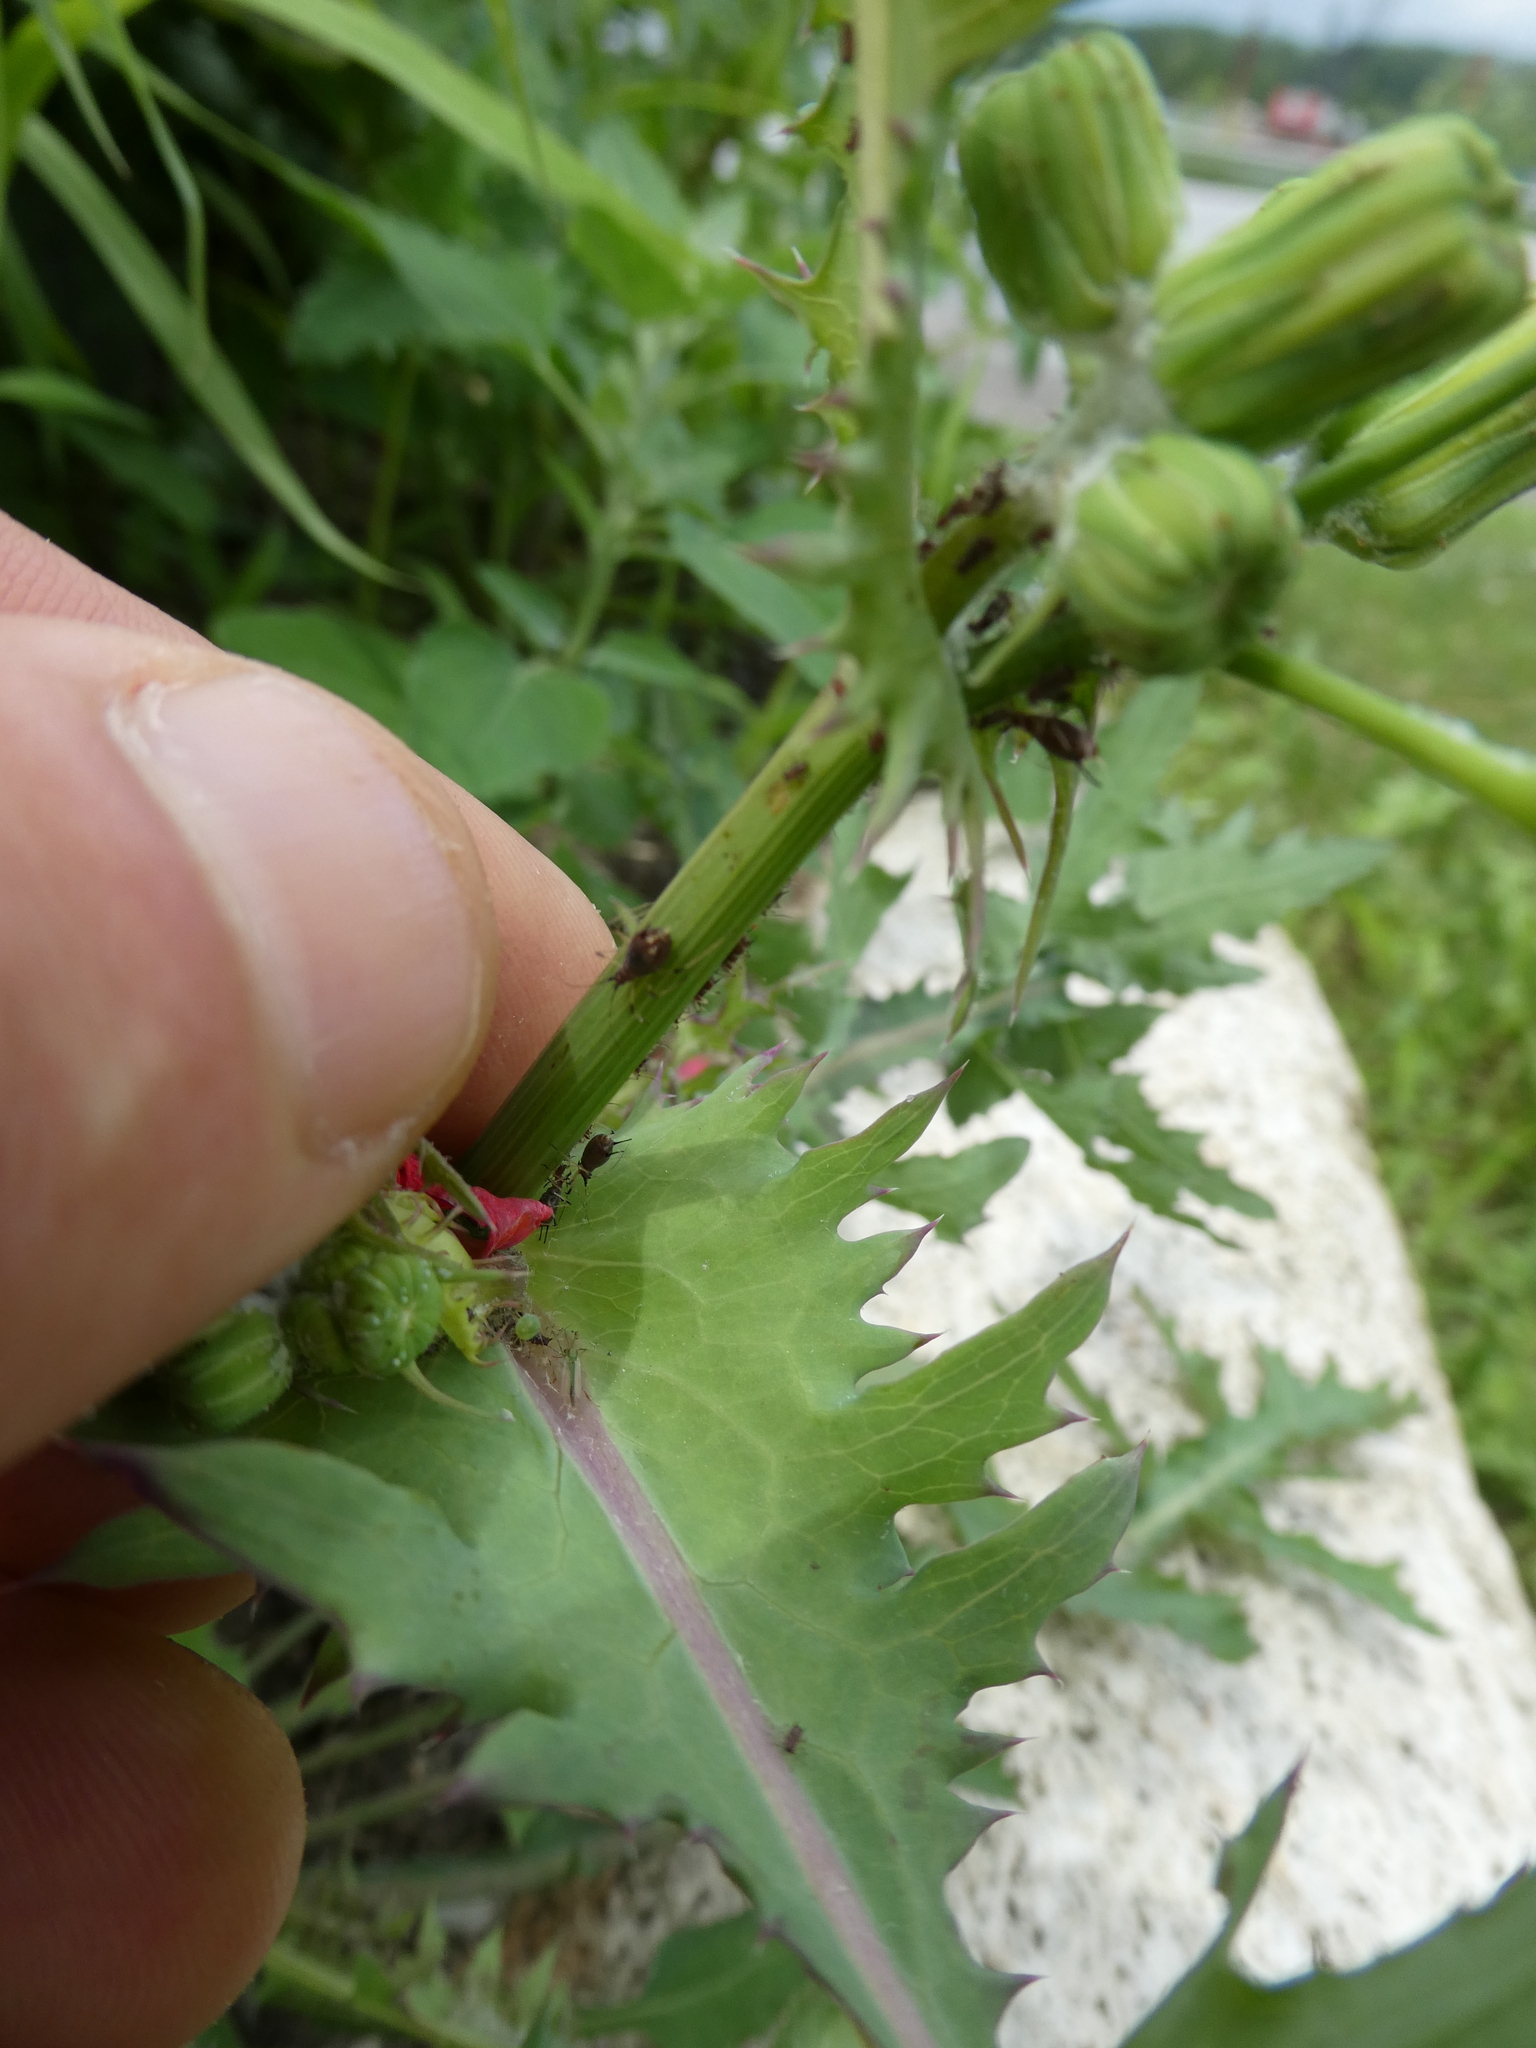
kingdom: Plantae
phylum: Tracheophyta
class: Magnoliopsida
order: Asterales
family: Asteraceae
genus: Sonchus
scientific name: Sonchus oleraceus
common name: Common sowthistle
